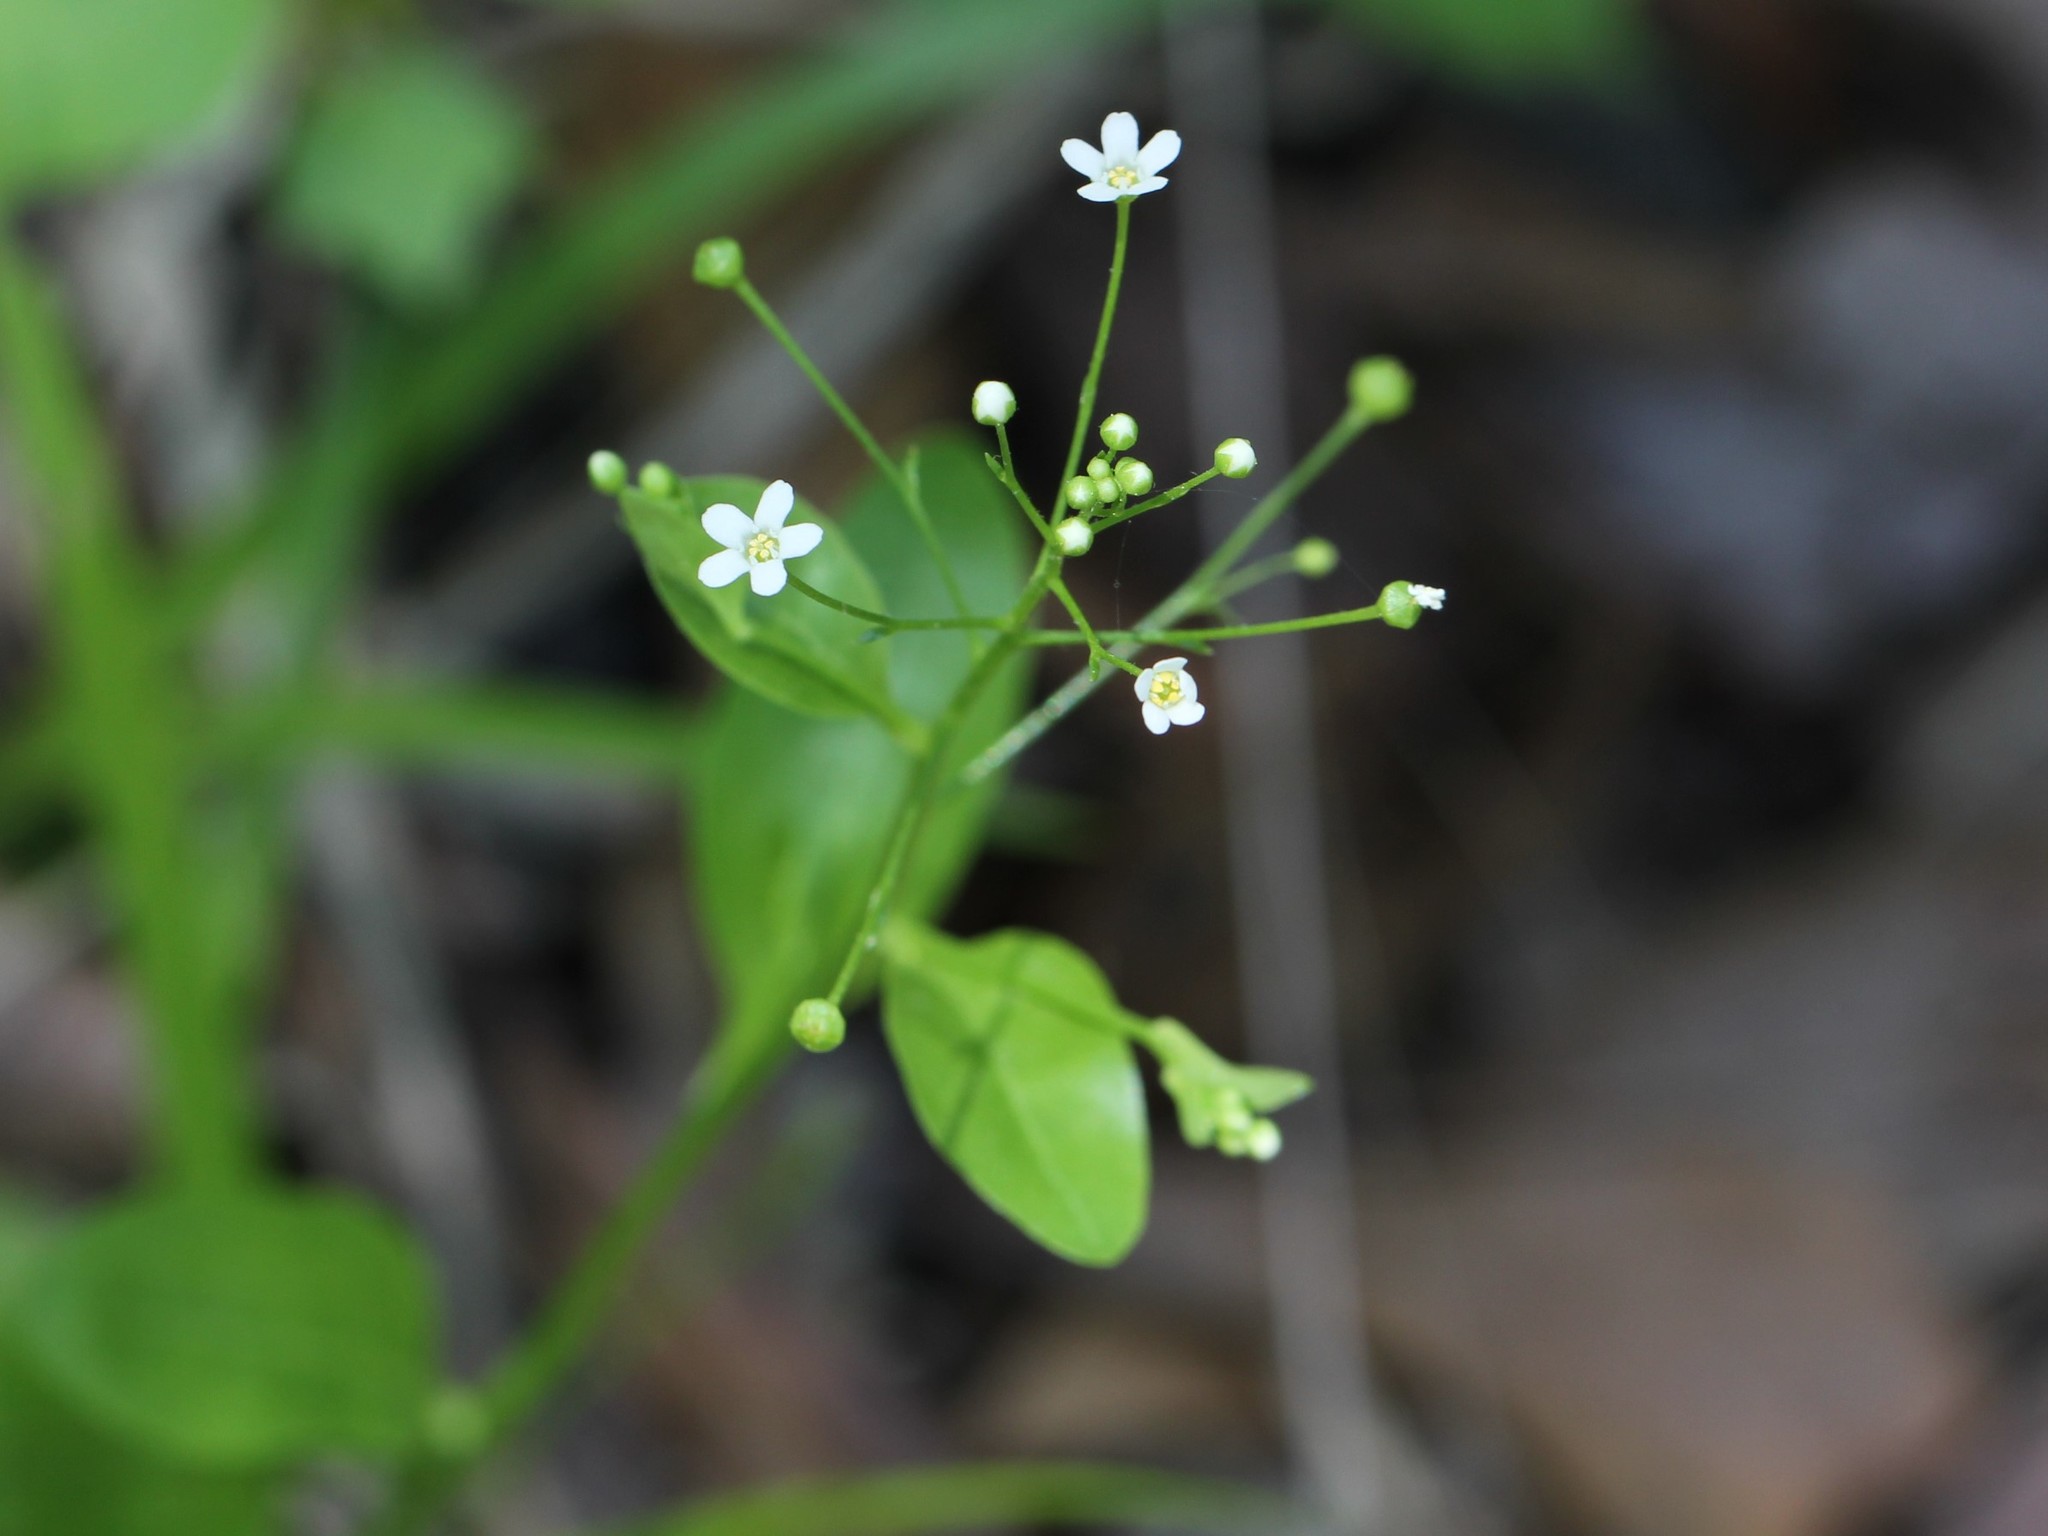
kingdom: Plantae
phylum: Tracheophyta
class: Magnoliopsida
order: Ericales
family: Primulaceae
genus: Samolus
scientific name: Samolus parviflorus
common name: False water pimpernel
